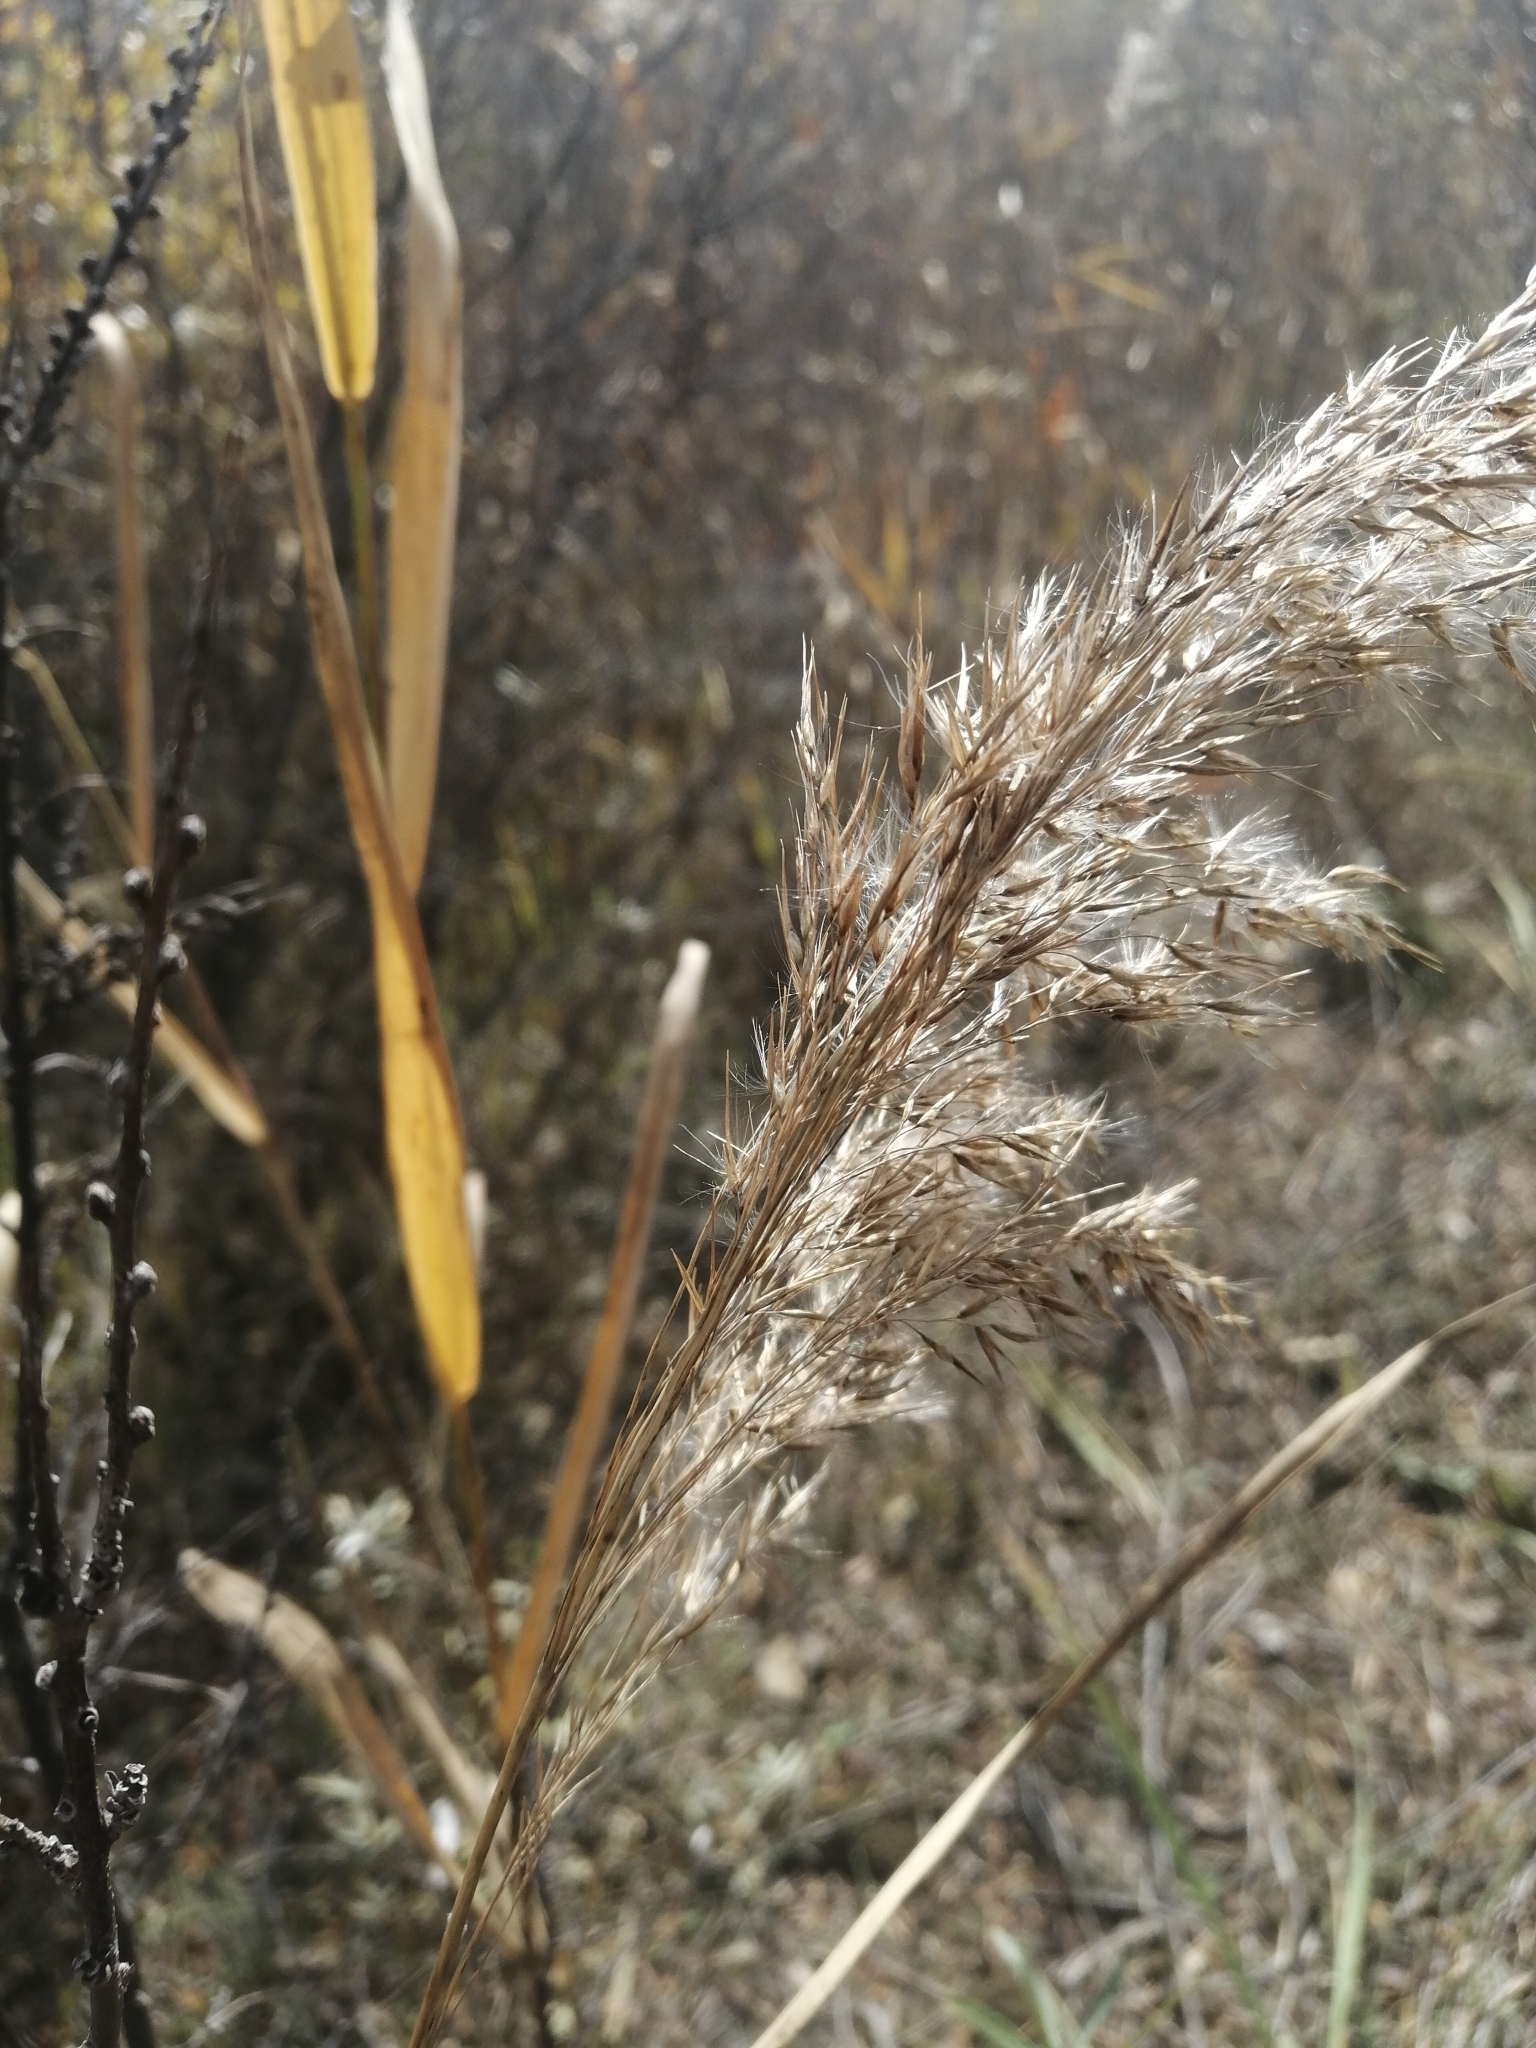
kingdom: Plantae
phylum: Tracheophyta
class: Liliopsida
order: Poales
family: Poaceae
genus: Phragmites
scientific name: Phragmites australis
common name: Common reed
